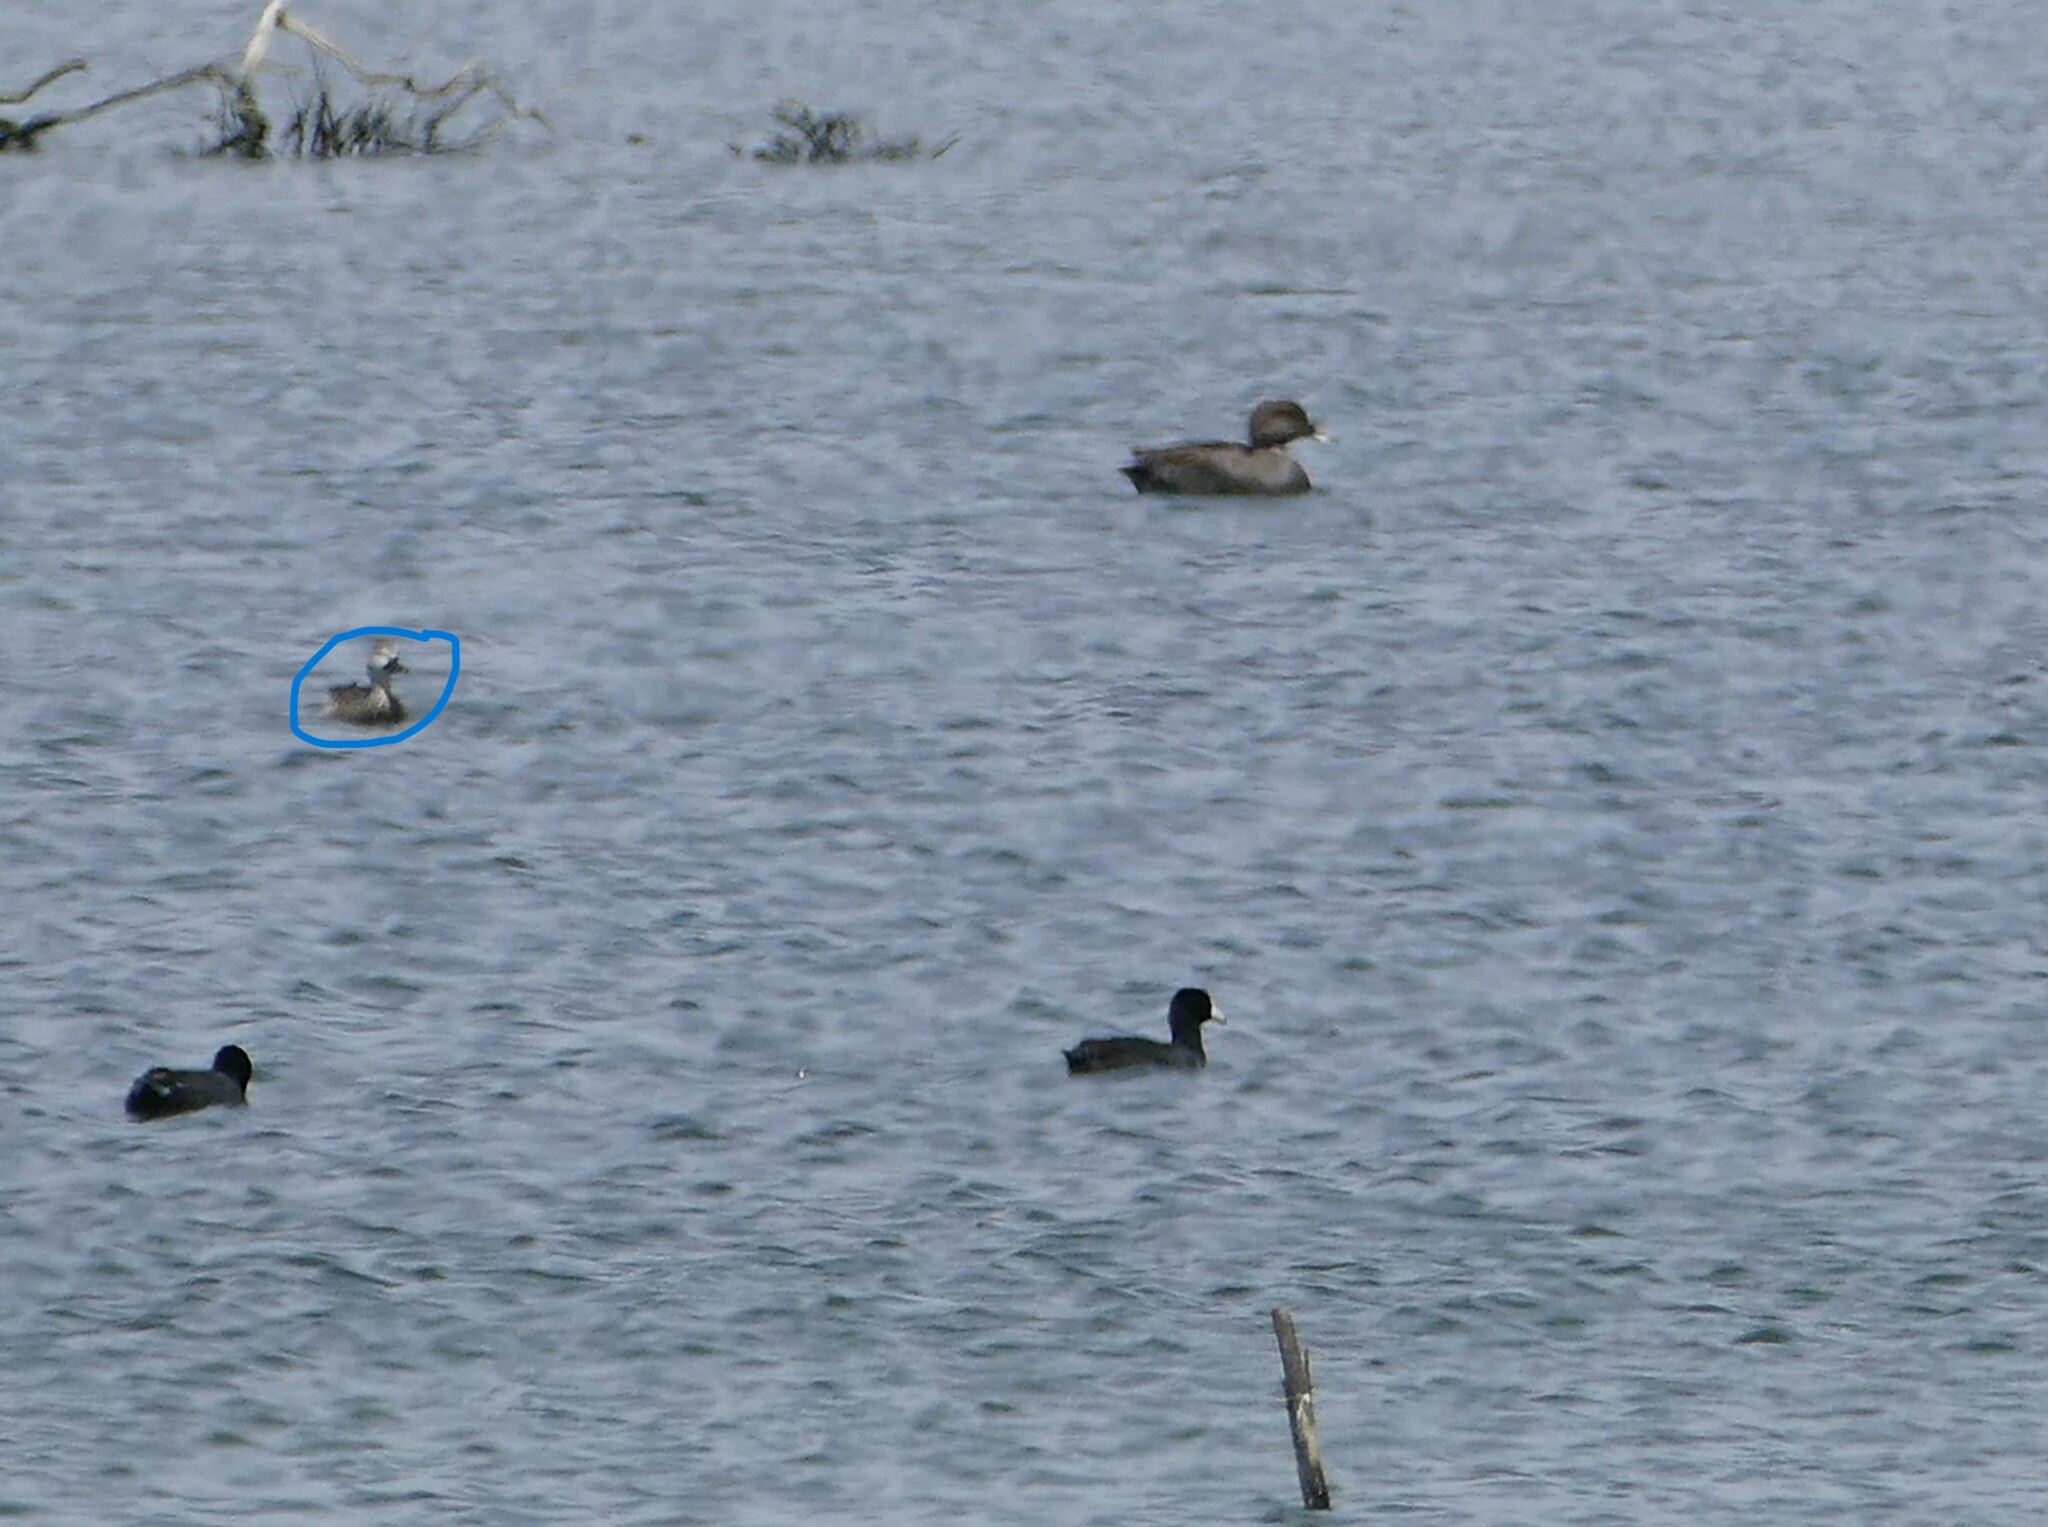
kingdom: Animalia
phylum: Chordata
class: Aves
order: Anseriformes
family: Anatidae
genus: Spatula
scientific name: Spatula discors
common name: Blue-winged teal
